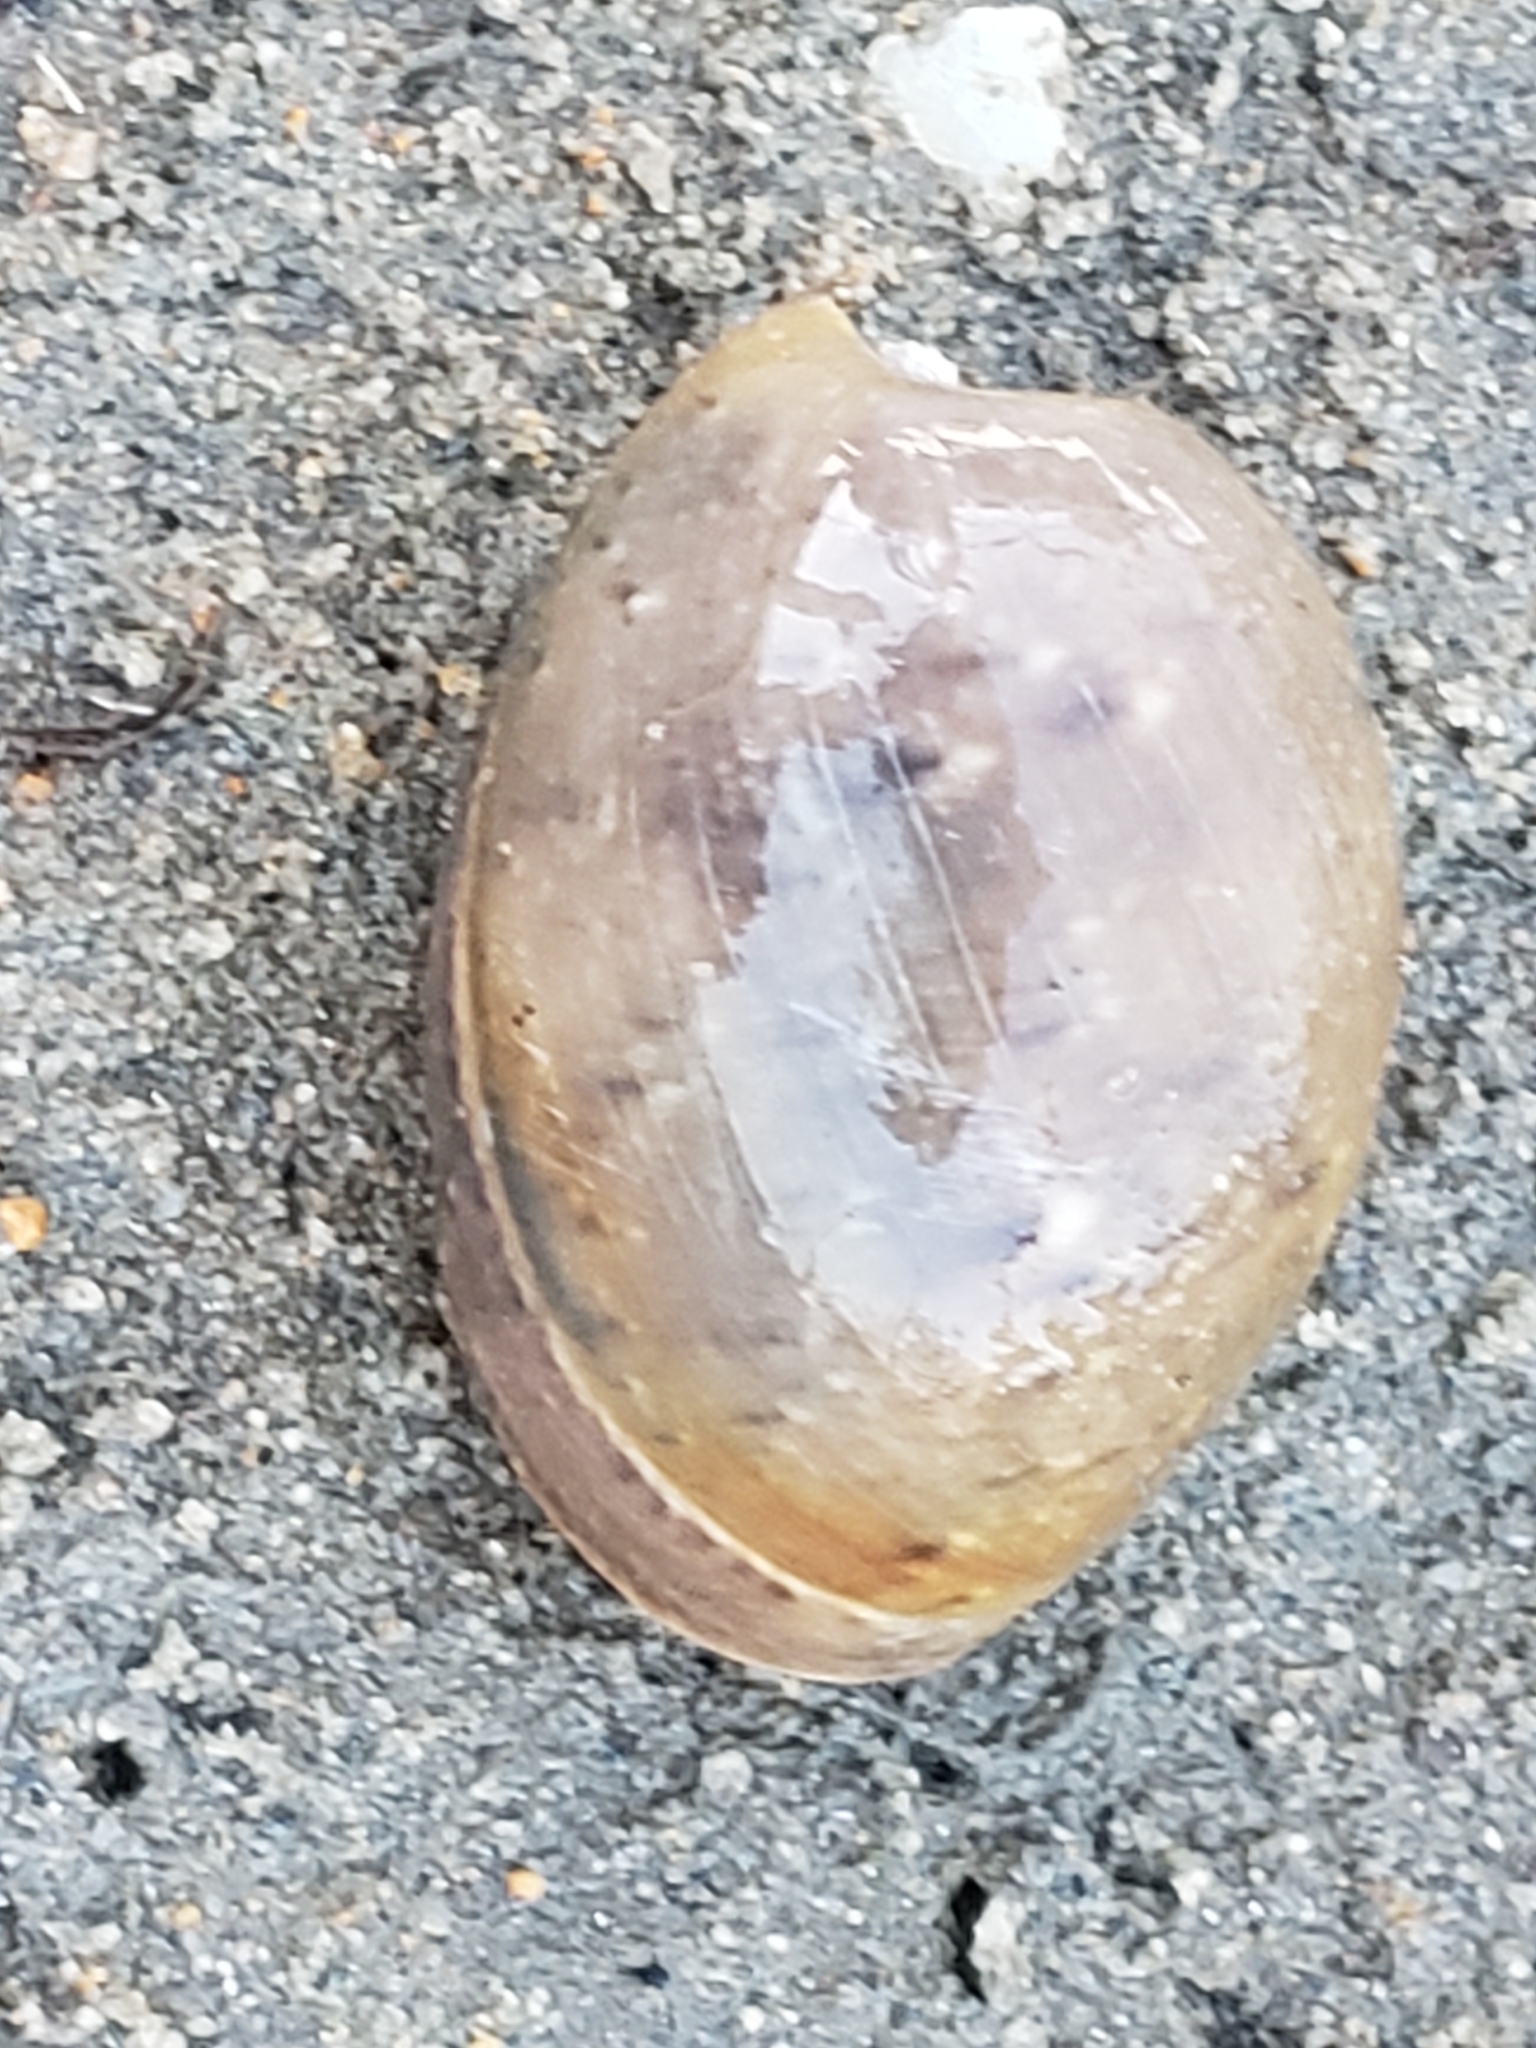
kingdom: Animalia
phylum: Mollusca
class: Gastropoda
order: Cephalaspidea
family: Bullidae
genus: Bulla
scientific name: Bulla gouldiana
